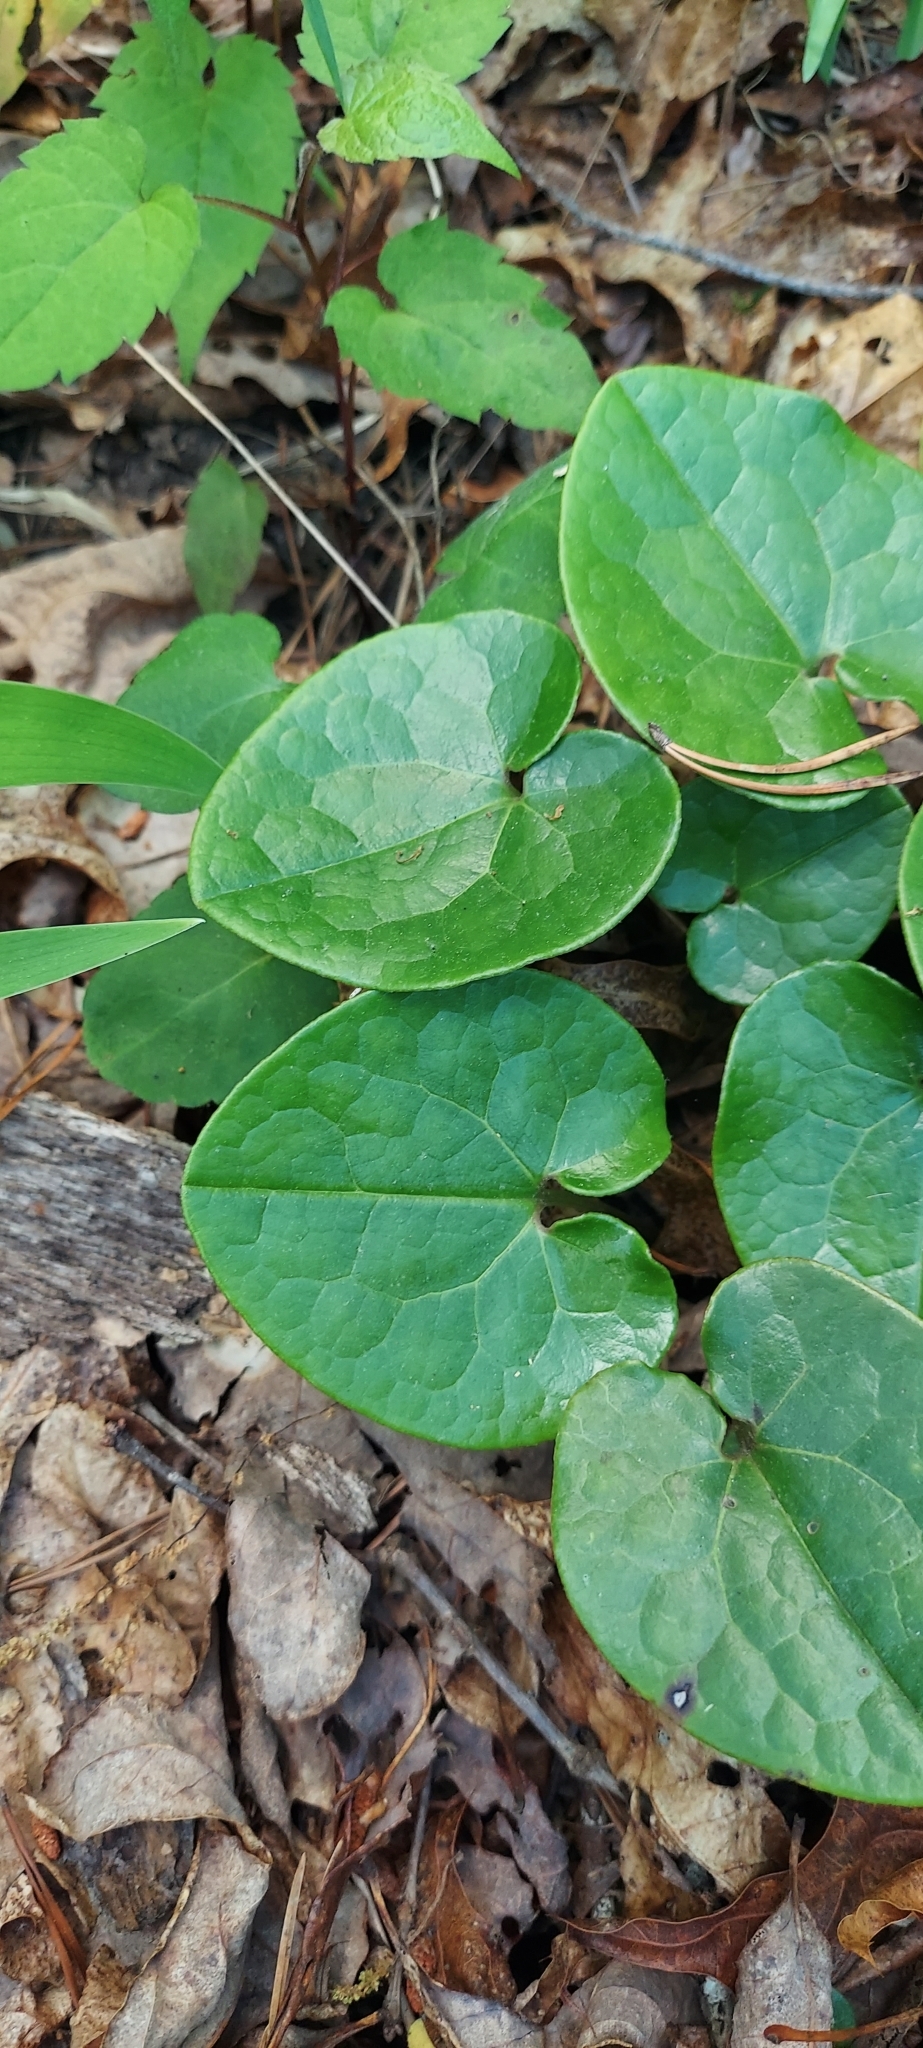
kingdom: Plantae
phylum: Tracheophyta
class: Magnoliopsida
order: Piperales
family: Aristolochiaceae
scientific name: Aristolochiaceae
